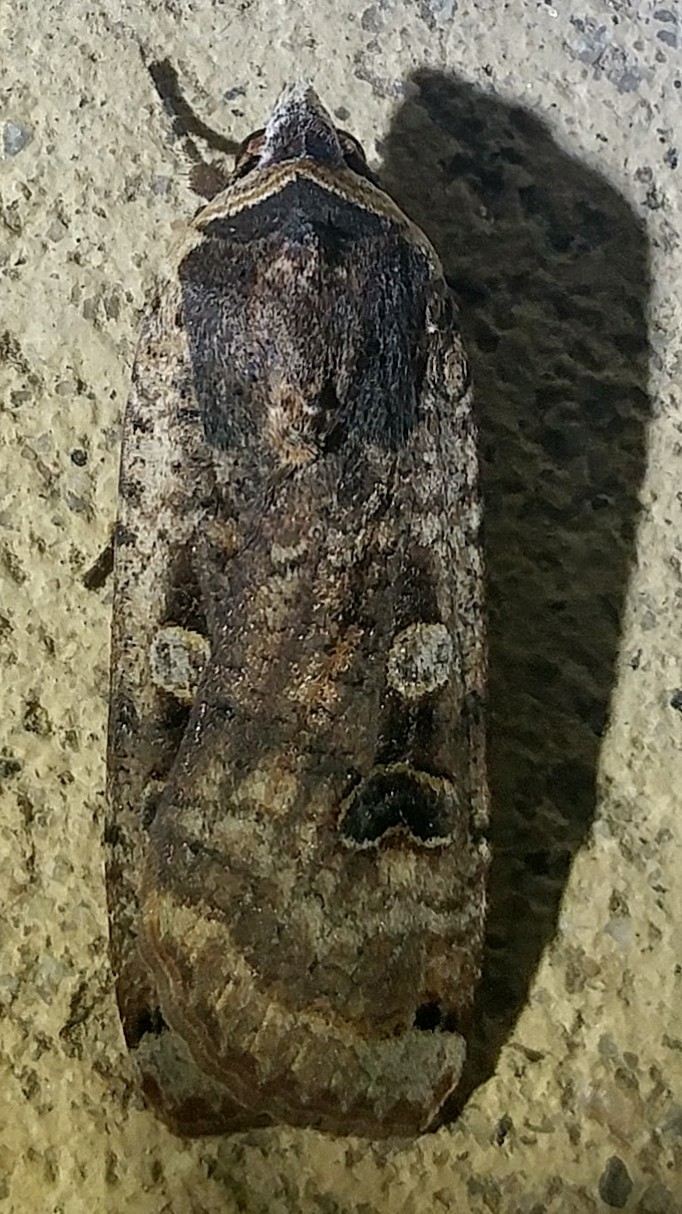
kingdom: Animalia
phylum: Arthropoda
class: Insecta
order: Lepidoptera
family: Noctuidae
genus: Noctua
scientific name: Noctua pronuba
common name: Large yellow underwing
